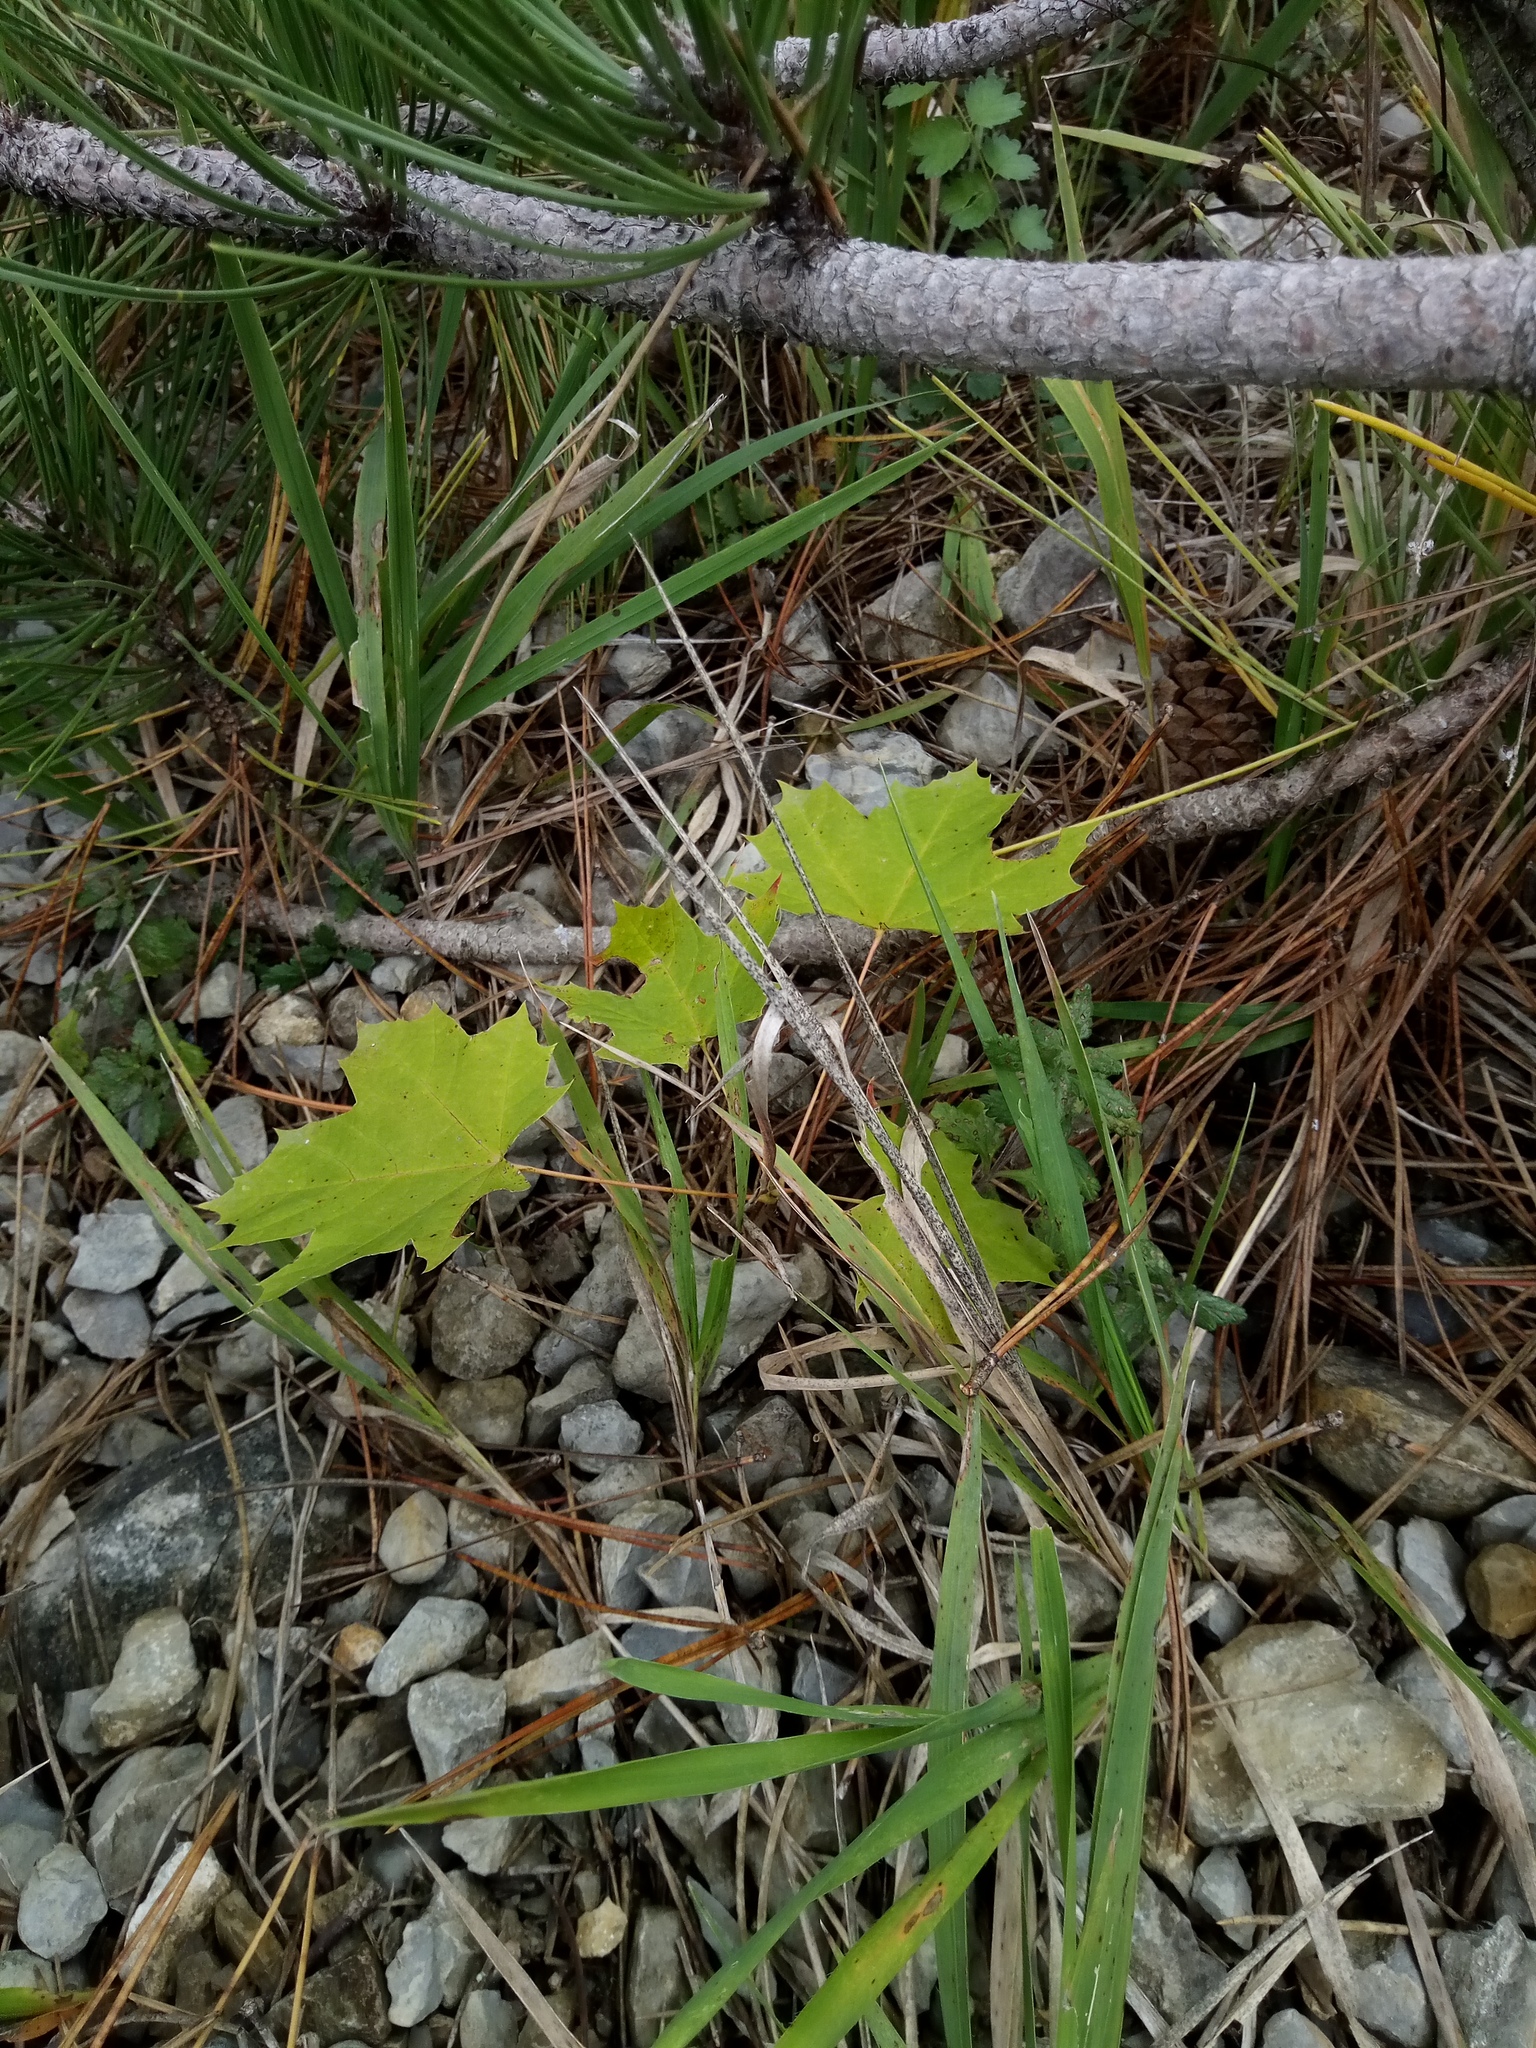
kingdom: Plantae
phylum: Tracheophyta
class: Magnoliopsida
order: Sapindales
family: Sapindaceae
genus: Acer
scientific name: Acer platanoides
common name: Norway maple
